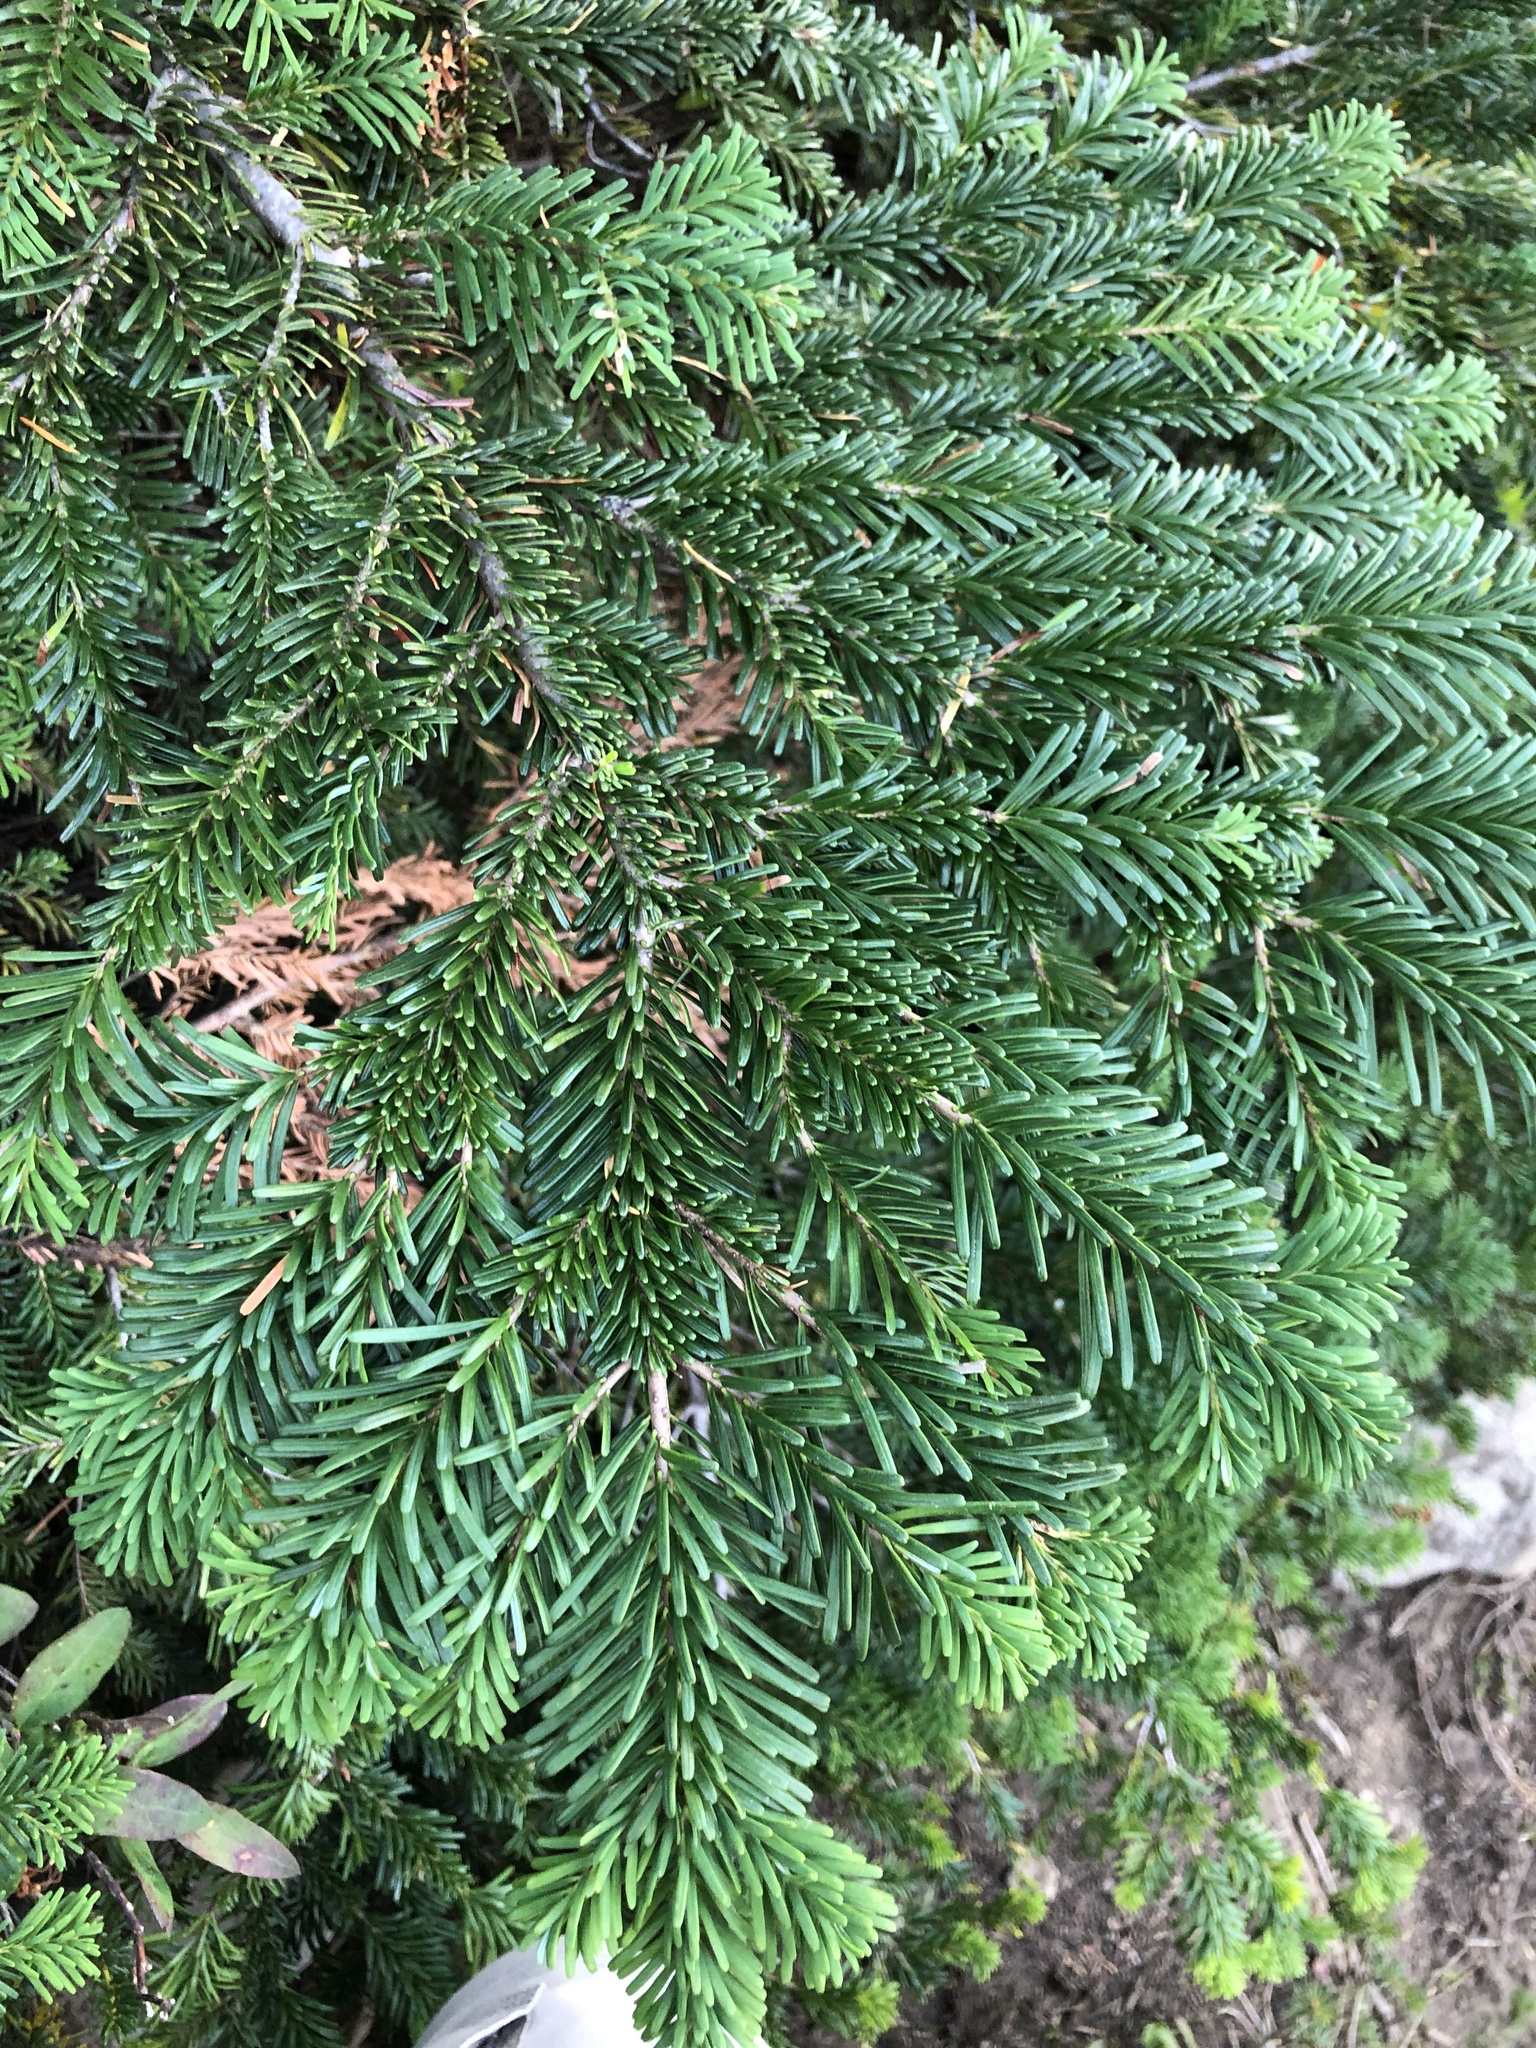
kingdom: Plantae
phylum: Tracheophyta
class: Pinopsida
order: Pinales
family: Pinaceae
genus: Abies
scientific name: Abies amabilis
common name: Pacific silver fir
